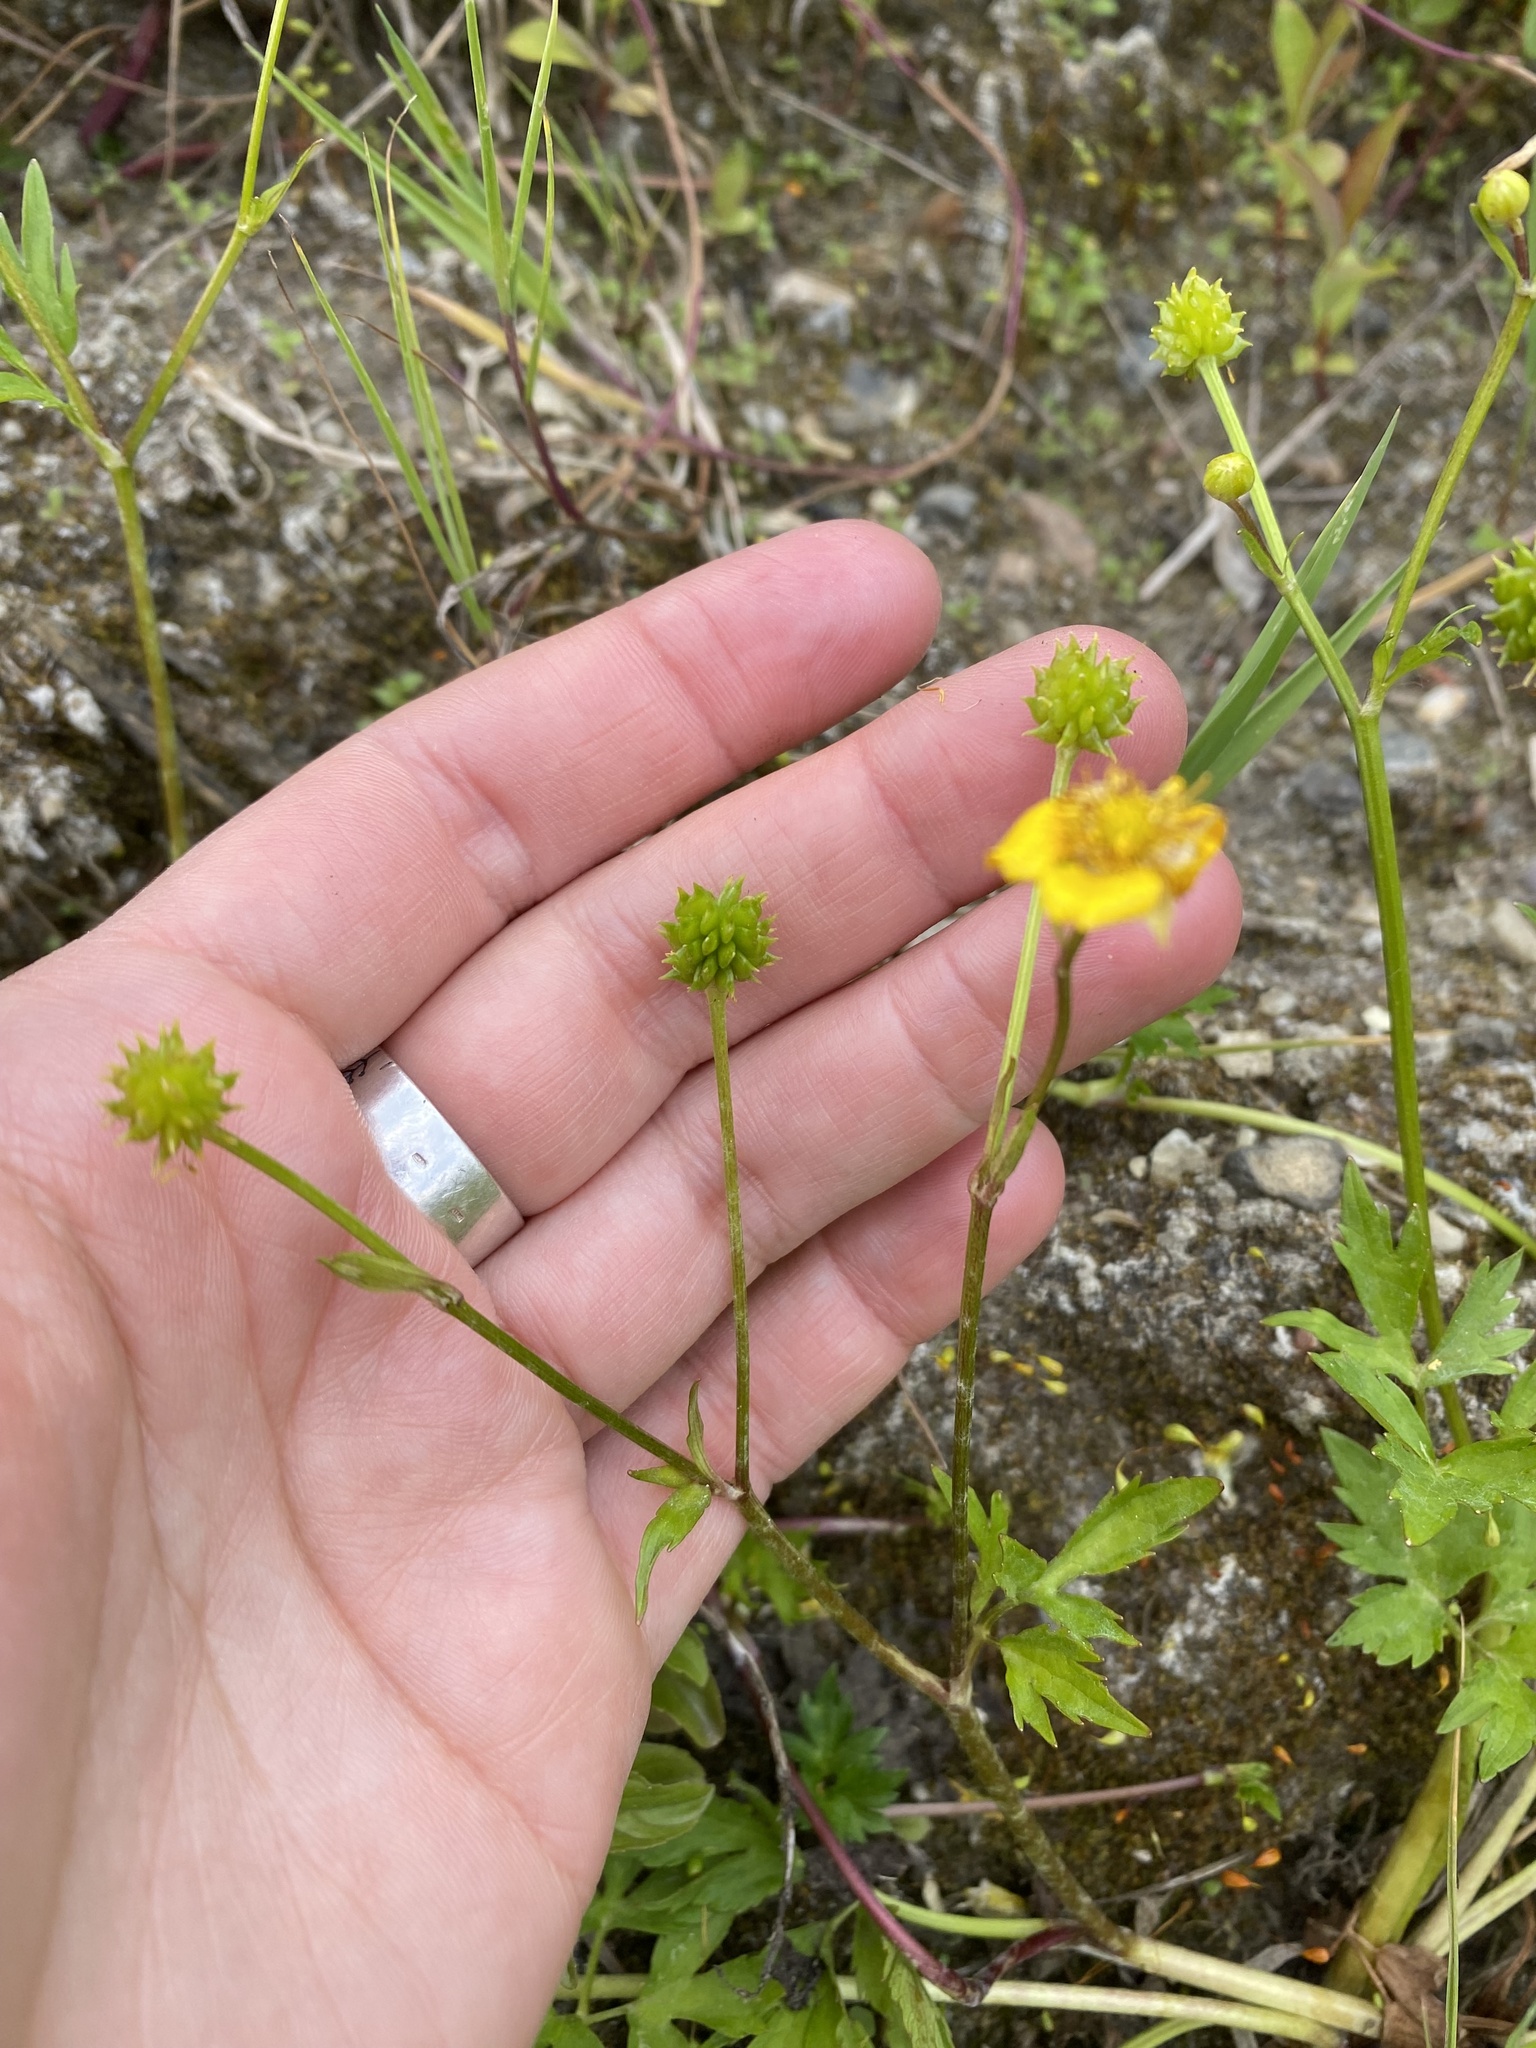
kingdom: Plantae
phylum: Tracheophyta
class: Magnoliopsida
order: Ranunculales
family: Ranunculaceae
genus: Ranunculus
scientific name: Ranunculus repens
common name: Creeping buttercup
